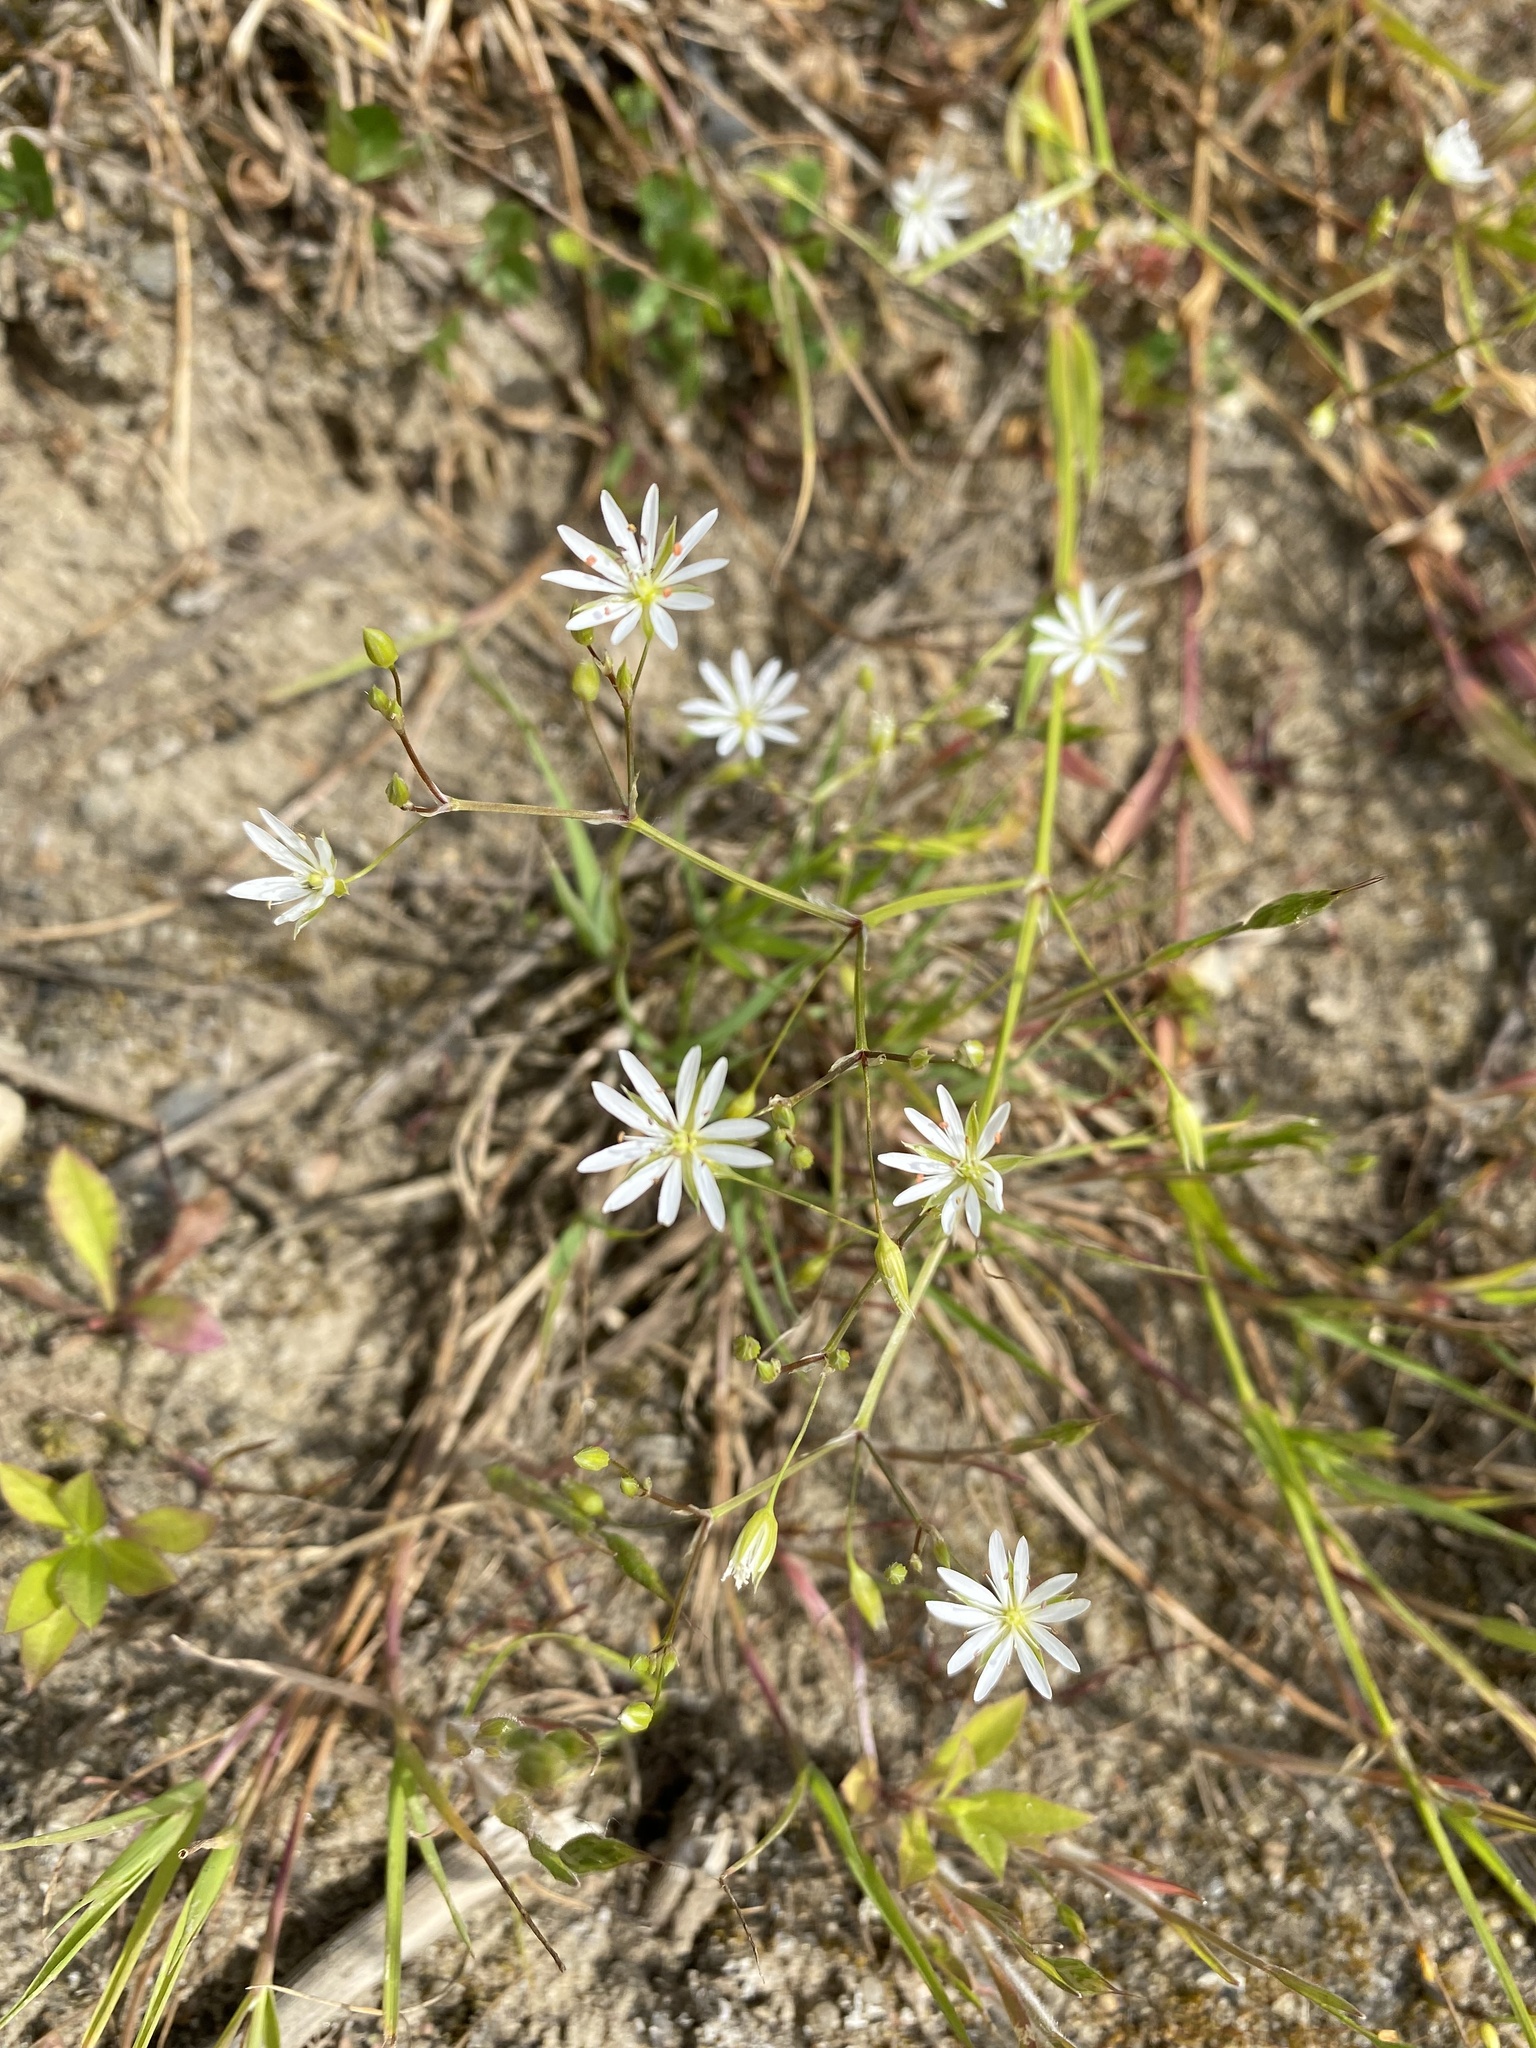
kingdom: Plantae
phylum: Tracheophyta
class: Magnoliopsida
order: Caryophyllales
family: Caryophyllaceae
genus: Stellaria
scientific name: Stellaria graminea
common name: Grass-like starwort
